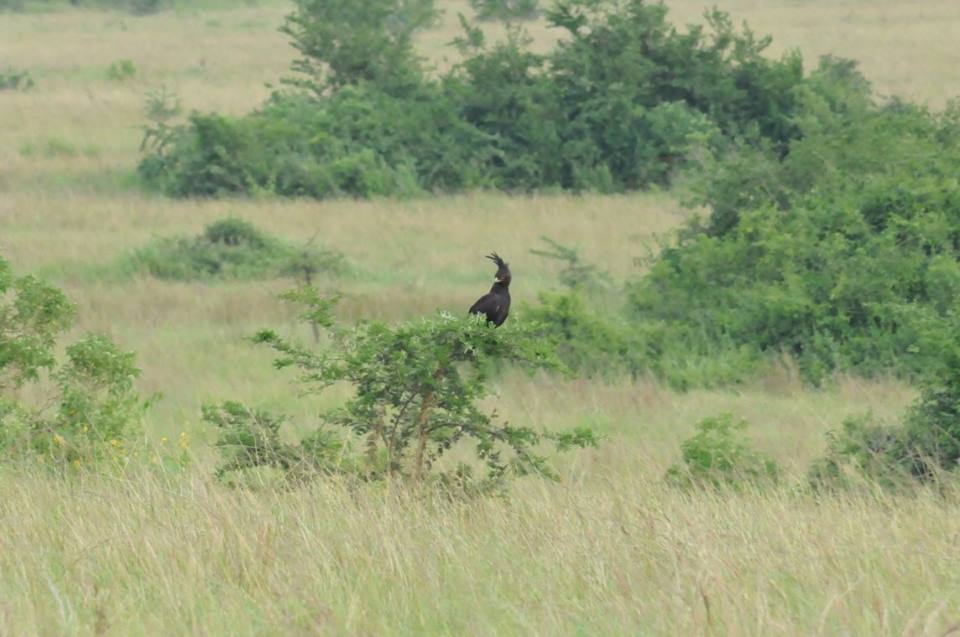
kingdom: Animalia
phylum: Chordata
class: Aves
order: Accipitriformes
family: Accipitridae
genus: Lophaetus
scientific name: Lophaetus occipitalis
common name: Long-crested eagle
